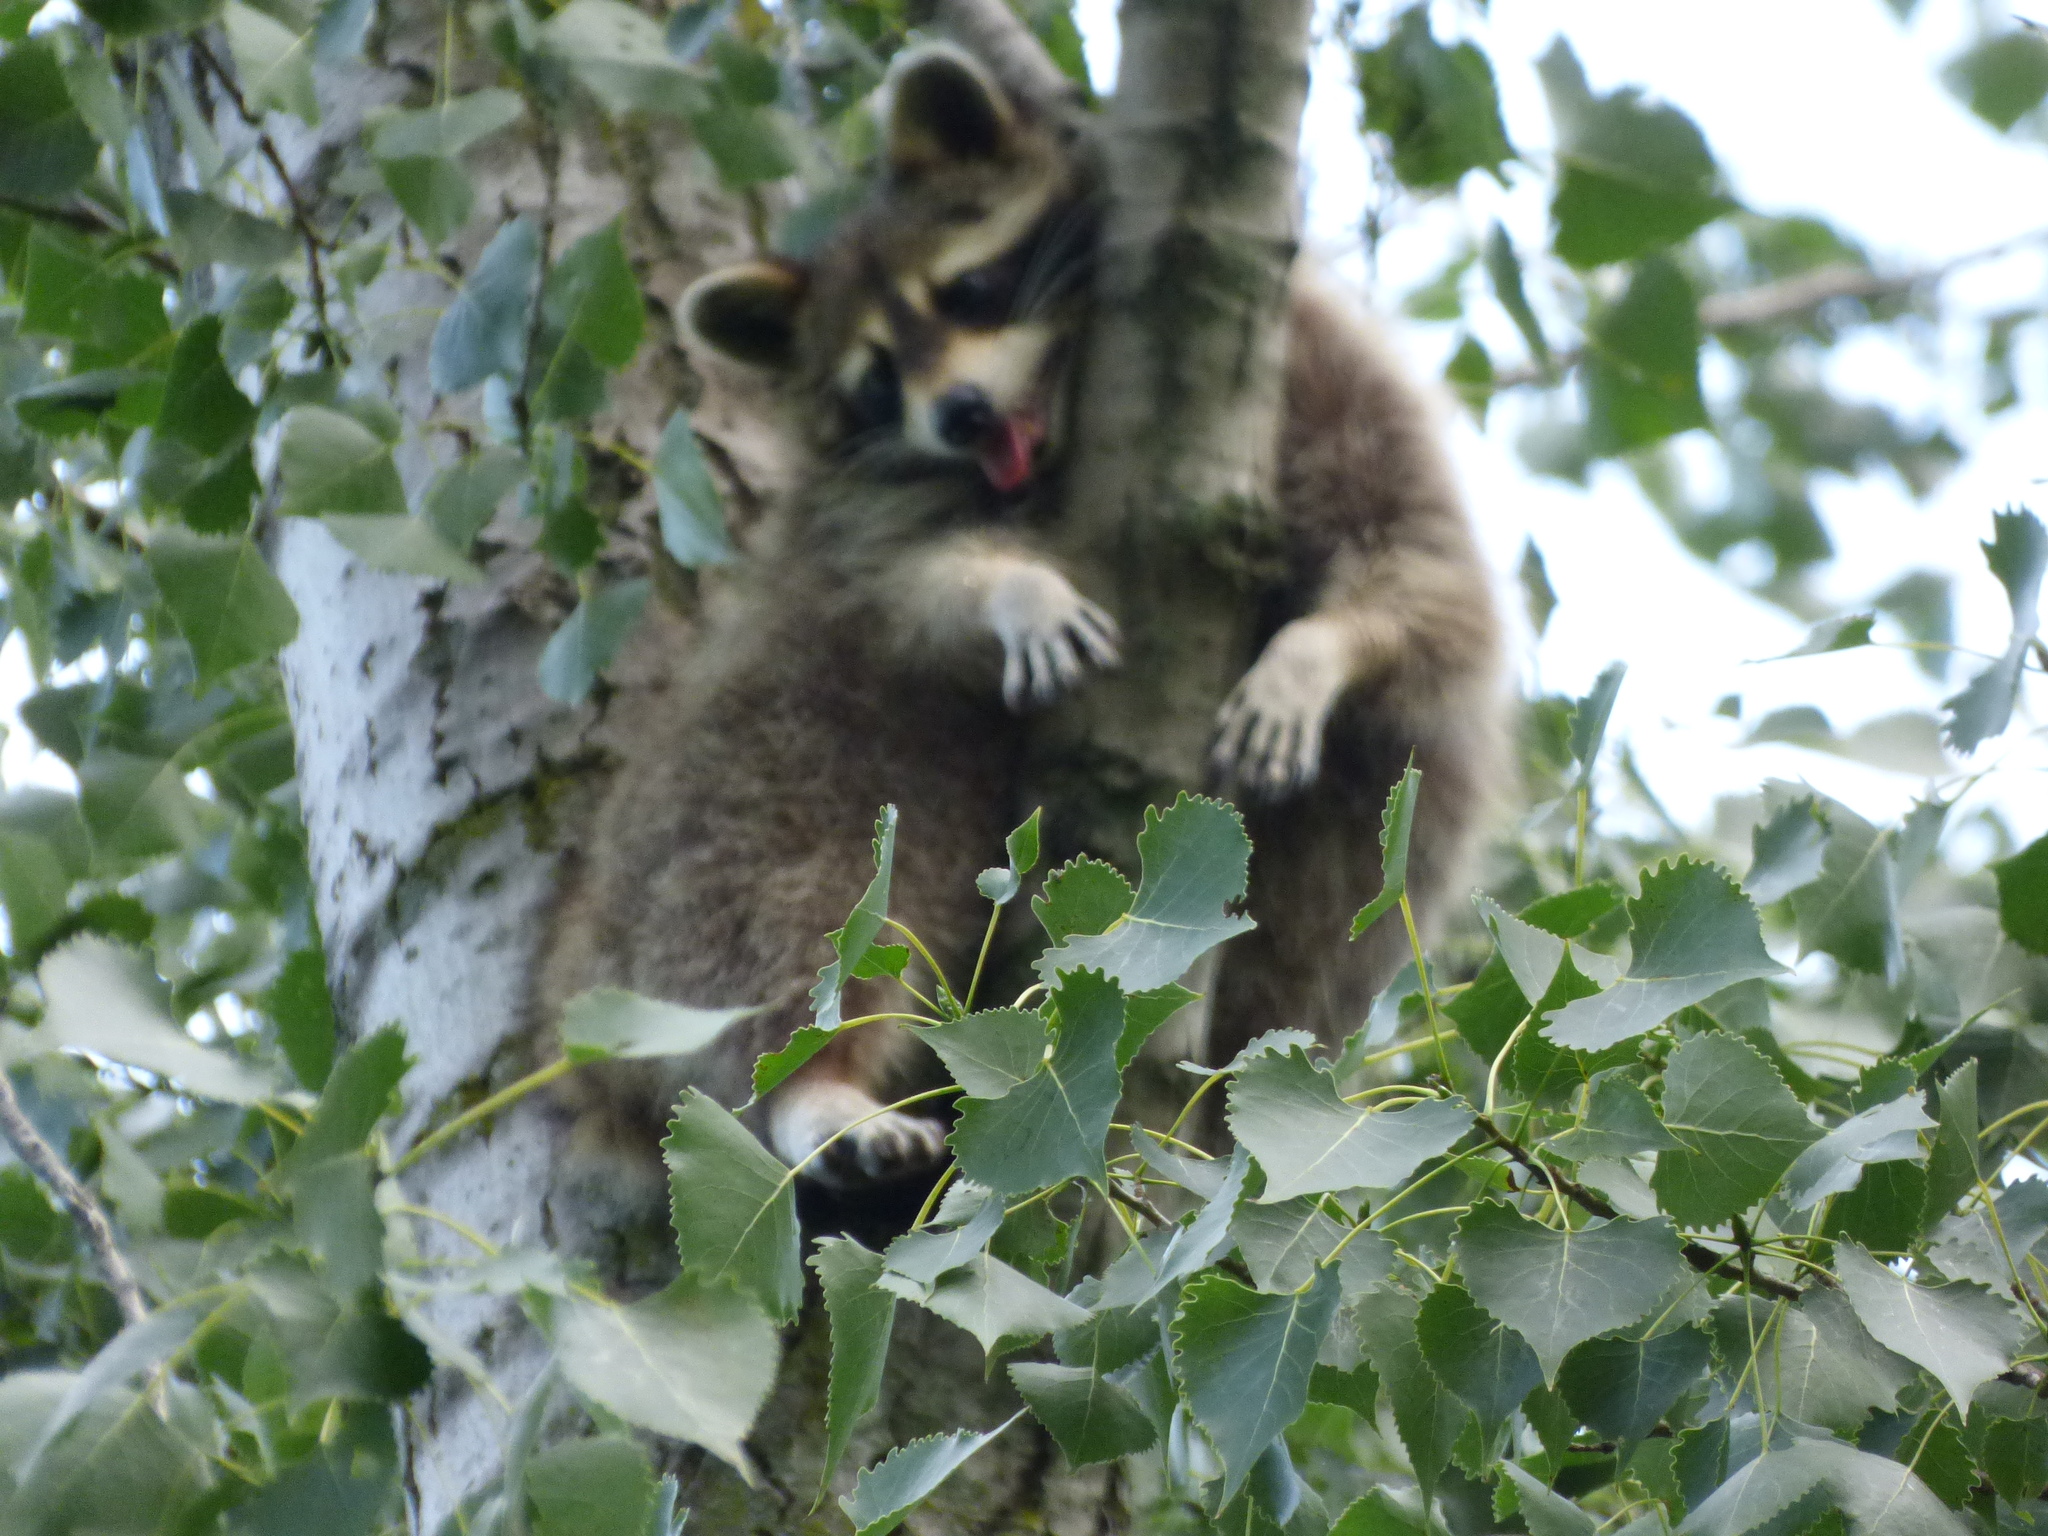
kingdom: Animalia
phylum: Chordata
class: Mammalia
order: Carnivora
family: Procyonidae
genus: Procyon
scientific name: Procyon lotor
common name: Raccoon
